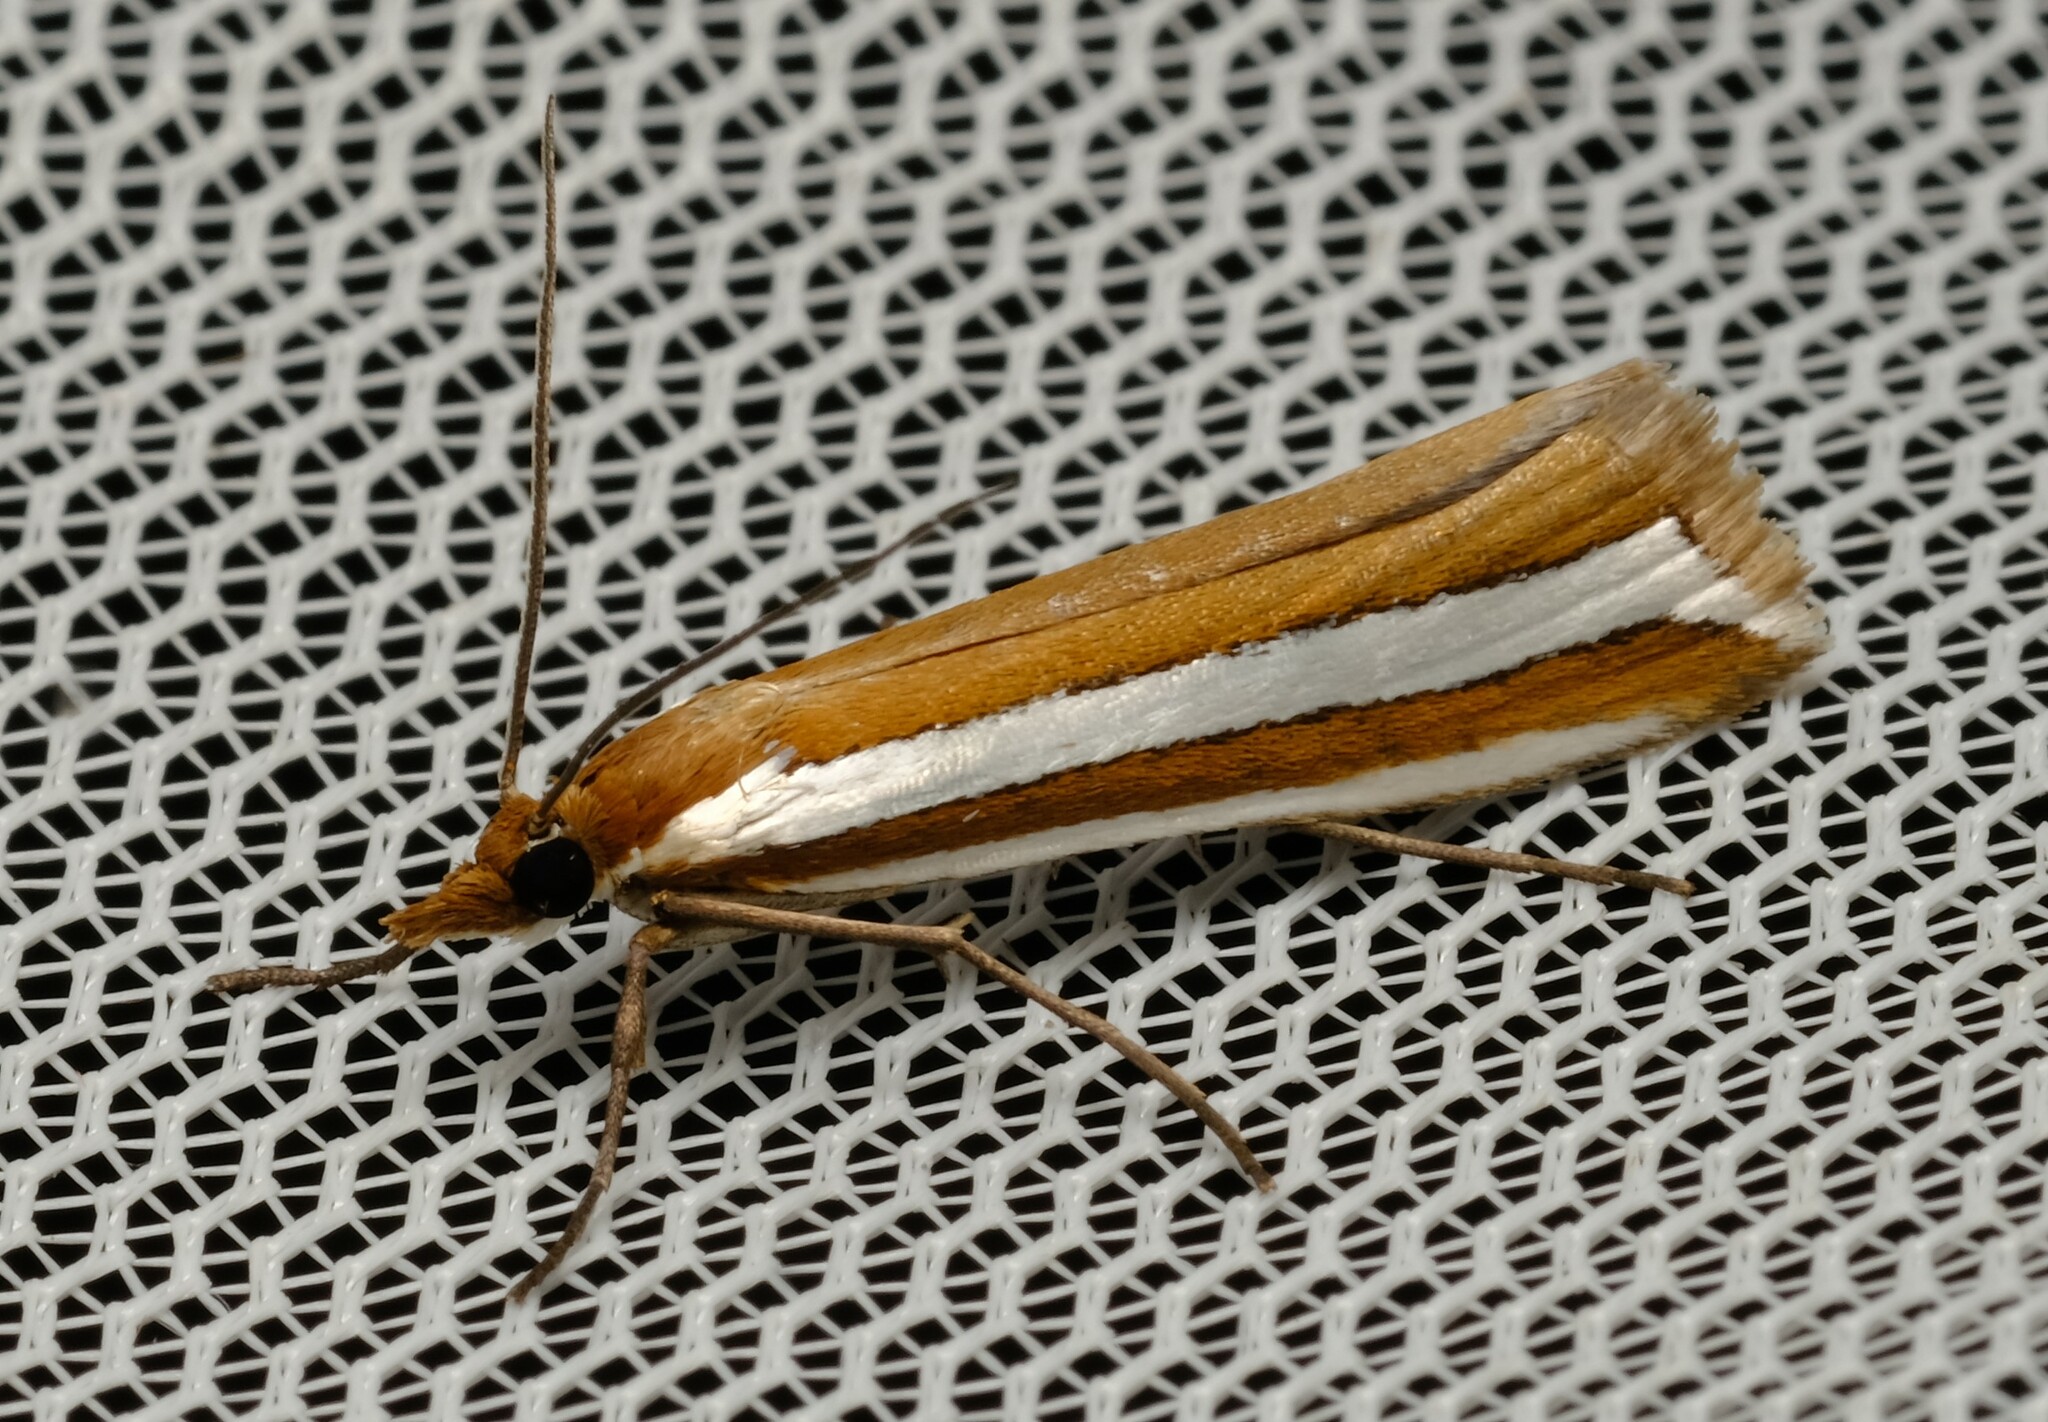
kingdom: Animalia
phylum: Arthropoda
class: Insecta
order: Lepidoptera
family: Crambidae
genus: Corynophora
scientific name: Corynophora lativittalis
